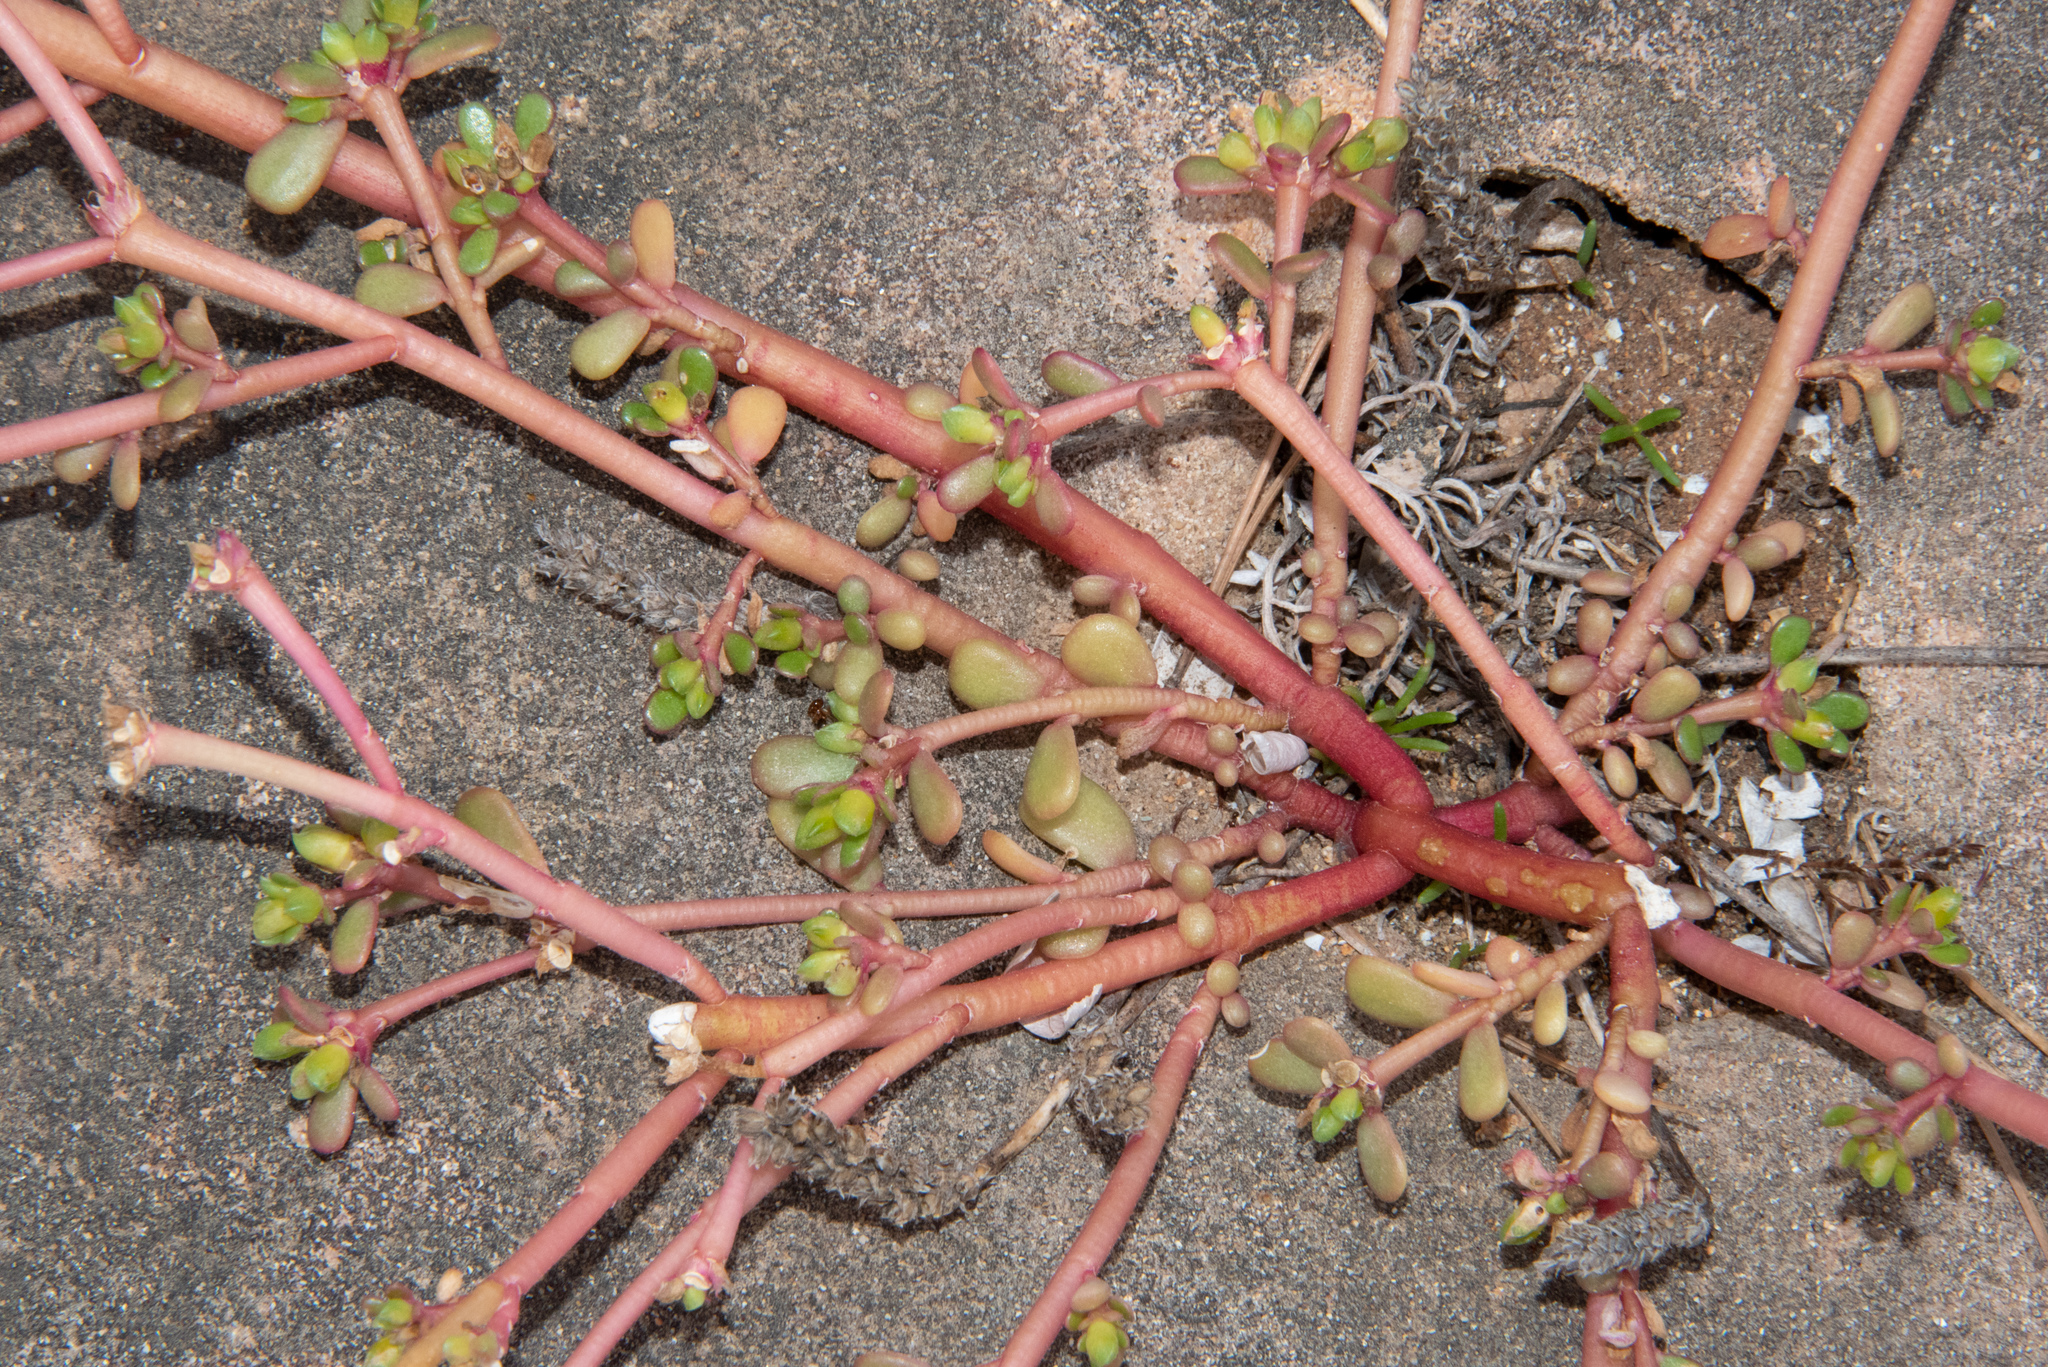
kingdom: Plantae
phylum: Tracheophyta
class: Magnoliopsida
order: Caryophyllales
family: Portulacaceae
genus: Portulaca
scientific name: Portulaca oleracea
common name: Common purslane
